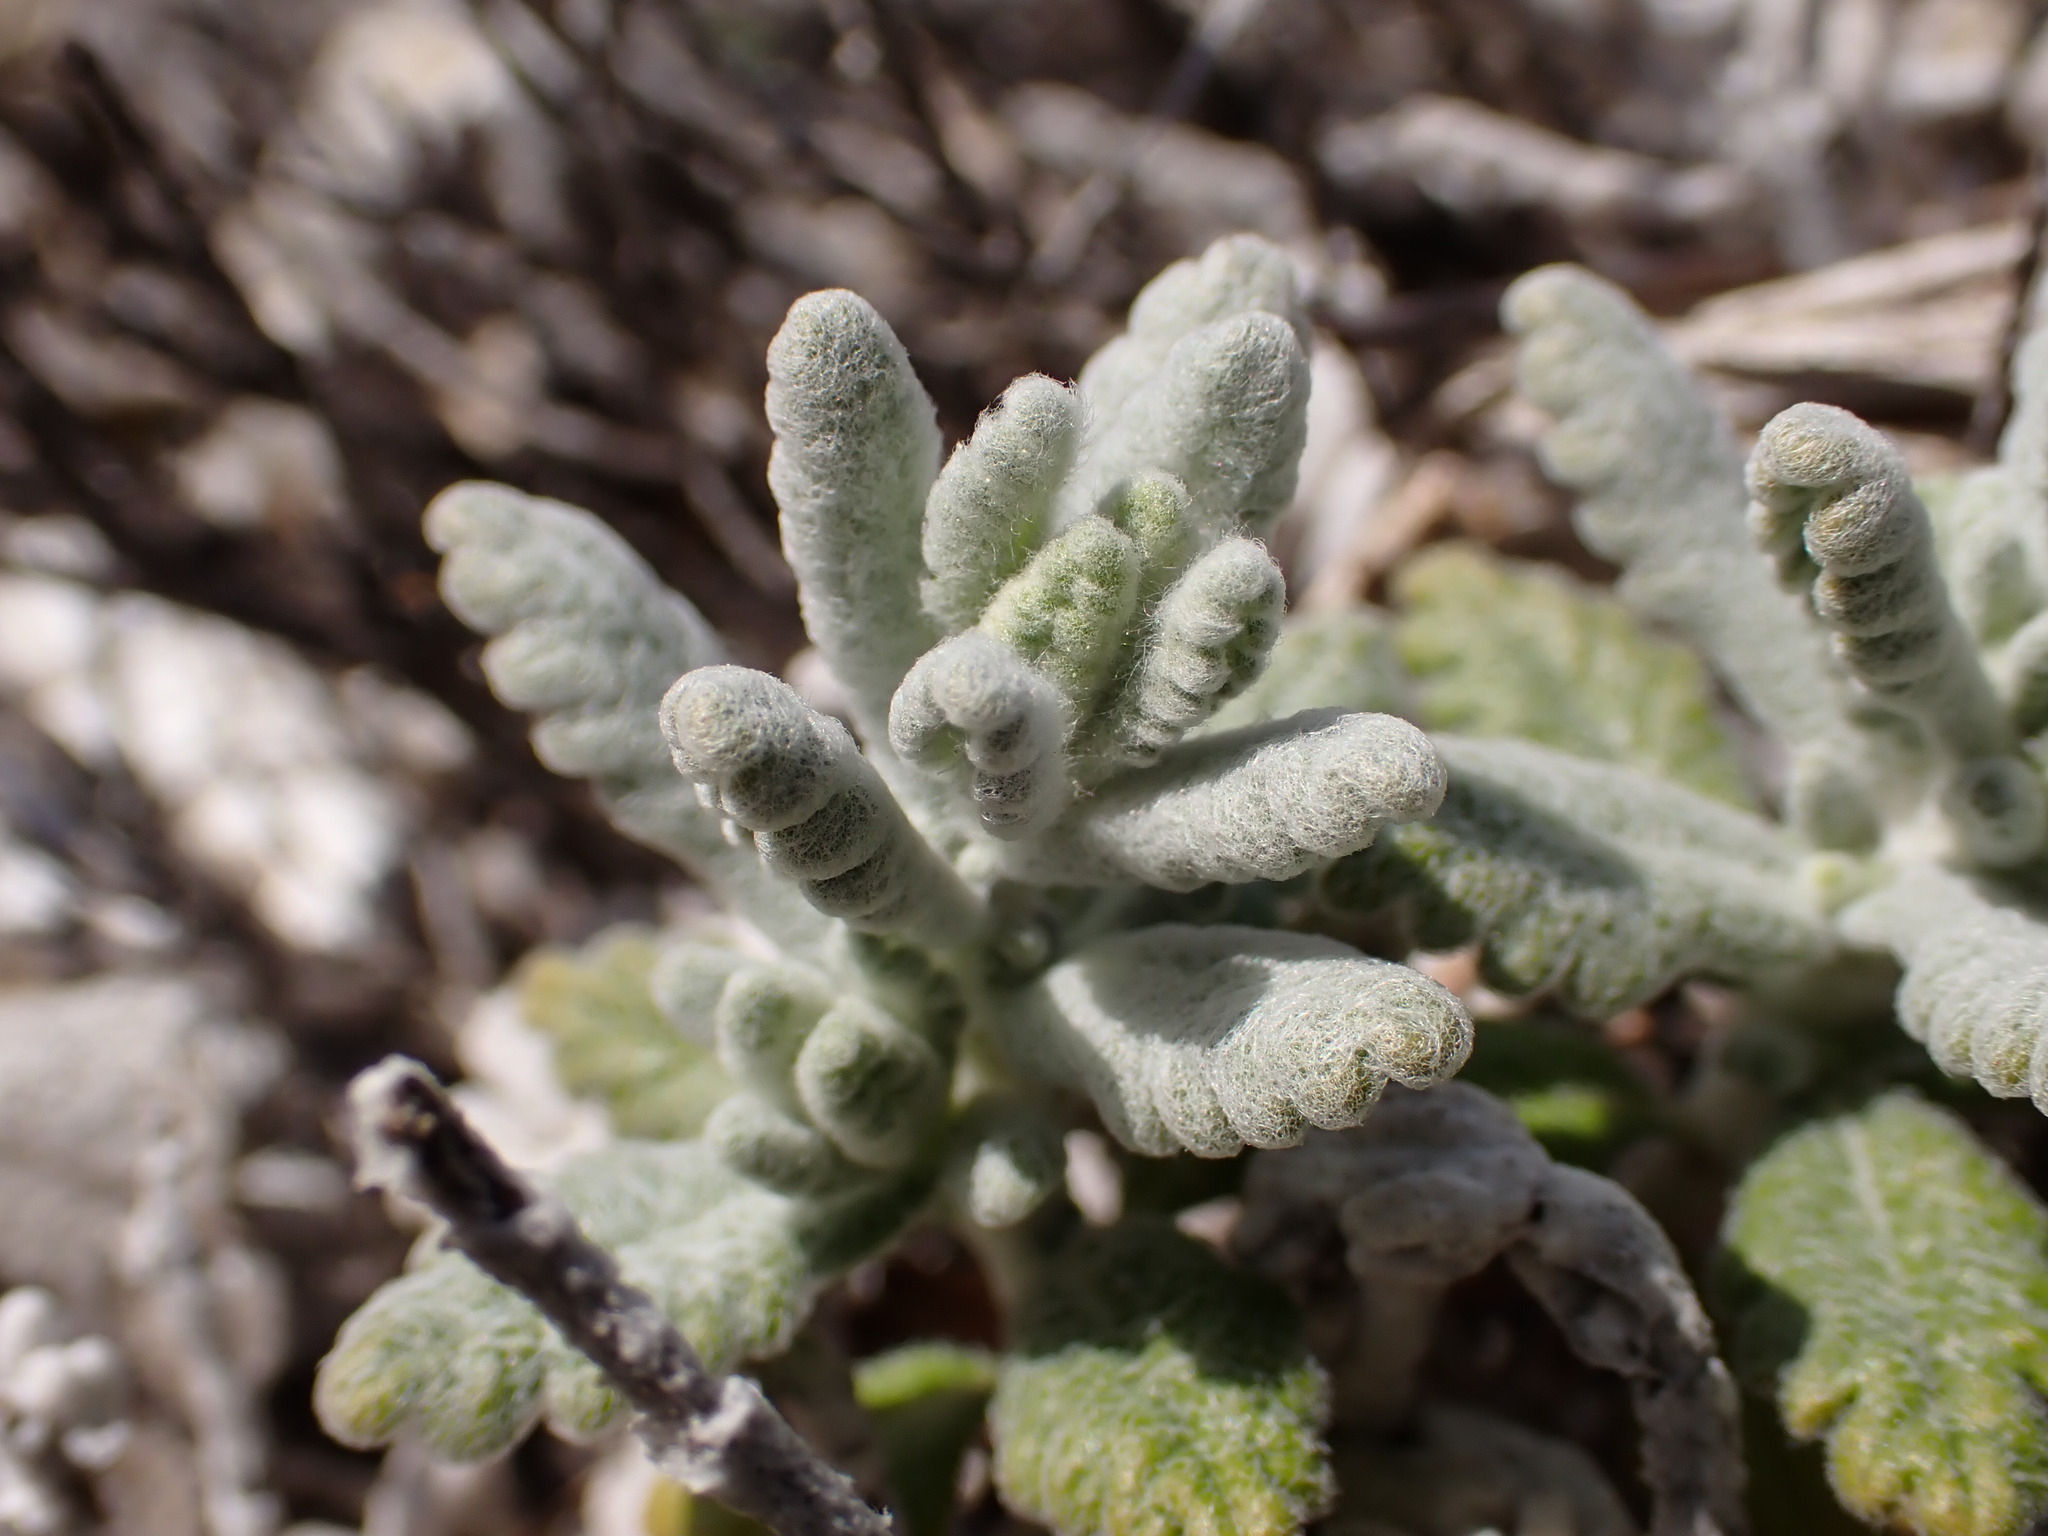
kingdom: Plantae
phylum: Tracheophyta
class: Magnoliopsida
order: Lamiales
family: Lamiaceae
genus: Teucrium
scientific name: Teucrium aureum
